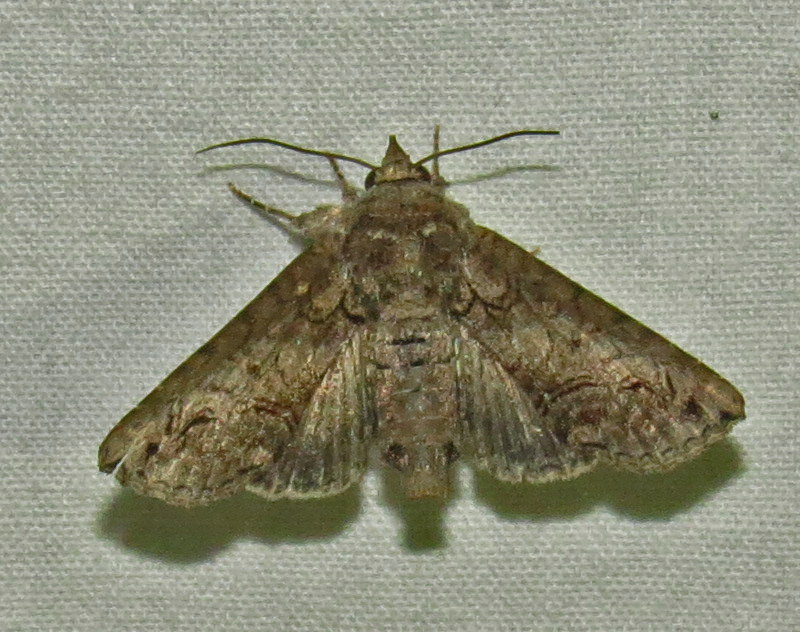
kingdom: Animalia
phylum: Arthropoda
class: Insecta
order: Lepidoptera
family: Euteliidae
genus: Paectes
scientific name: Paectes abrostoloides
